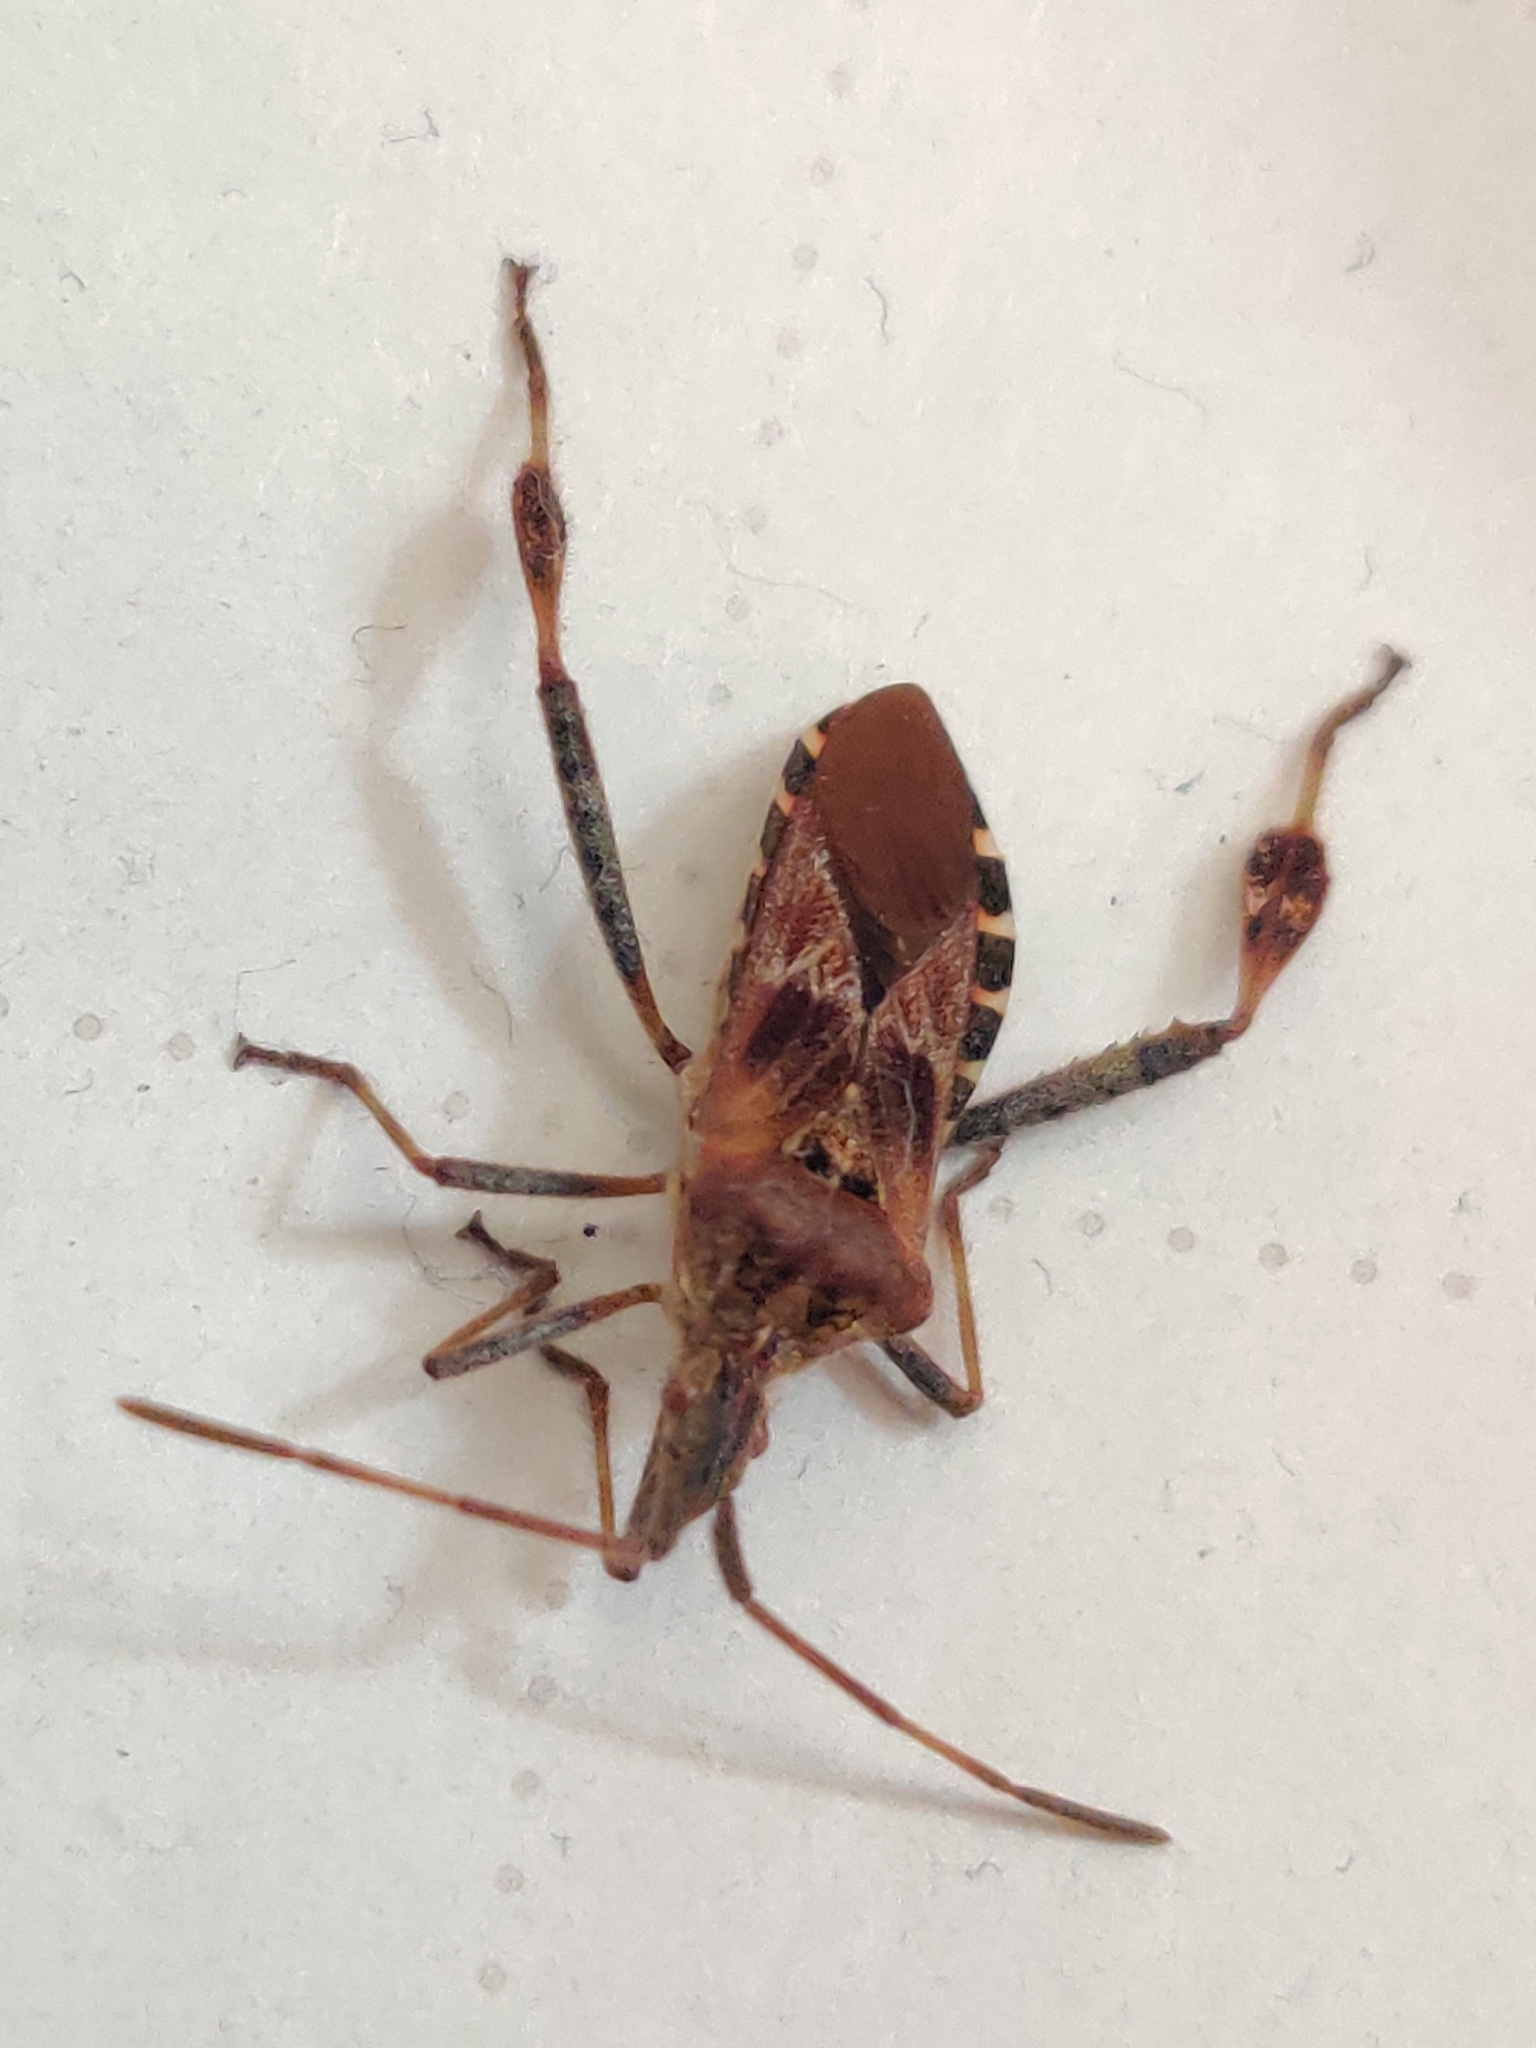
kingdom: Animalia
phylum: Arthropoda
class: Insecta
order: Hemiptera
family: Coreidae
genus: Leptoglossus
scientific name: Leptoglossus occidentalis
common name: Western conifer-seed bug
